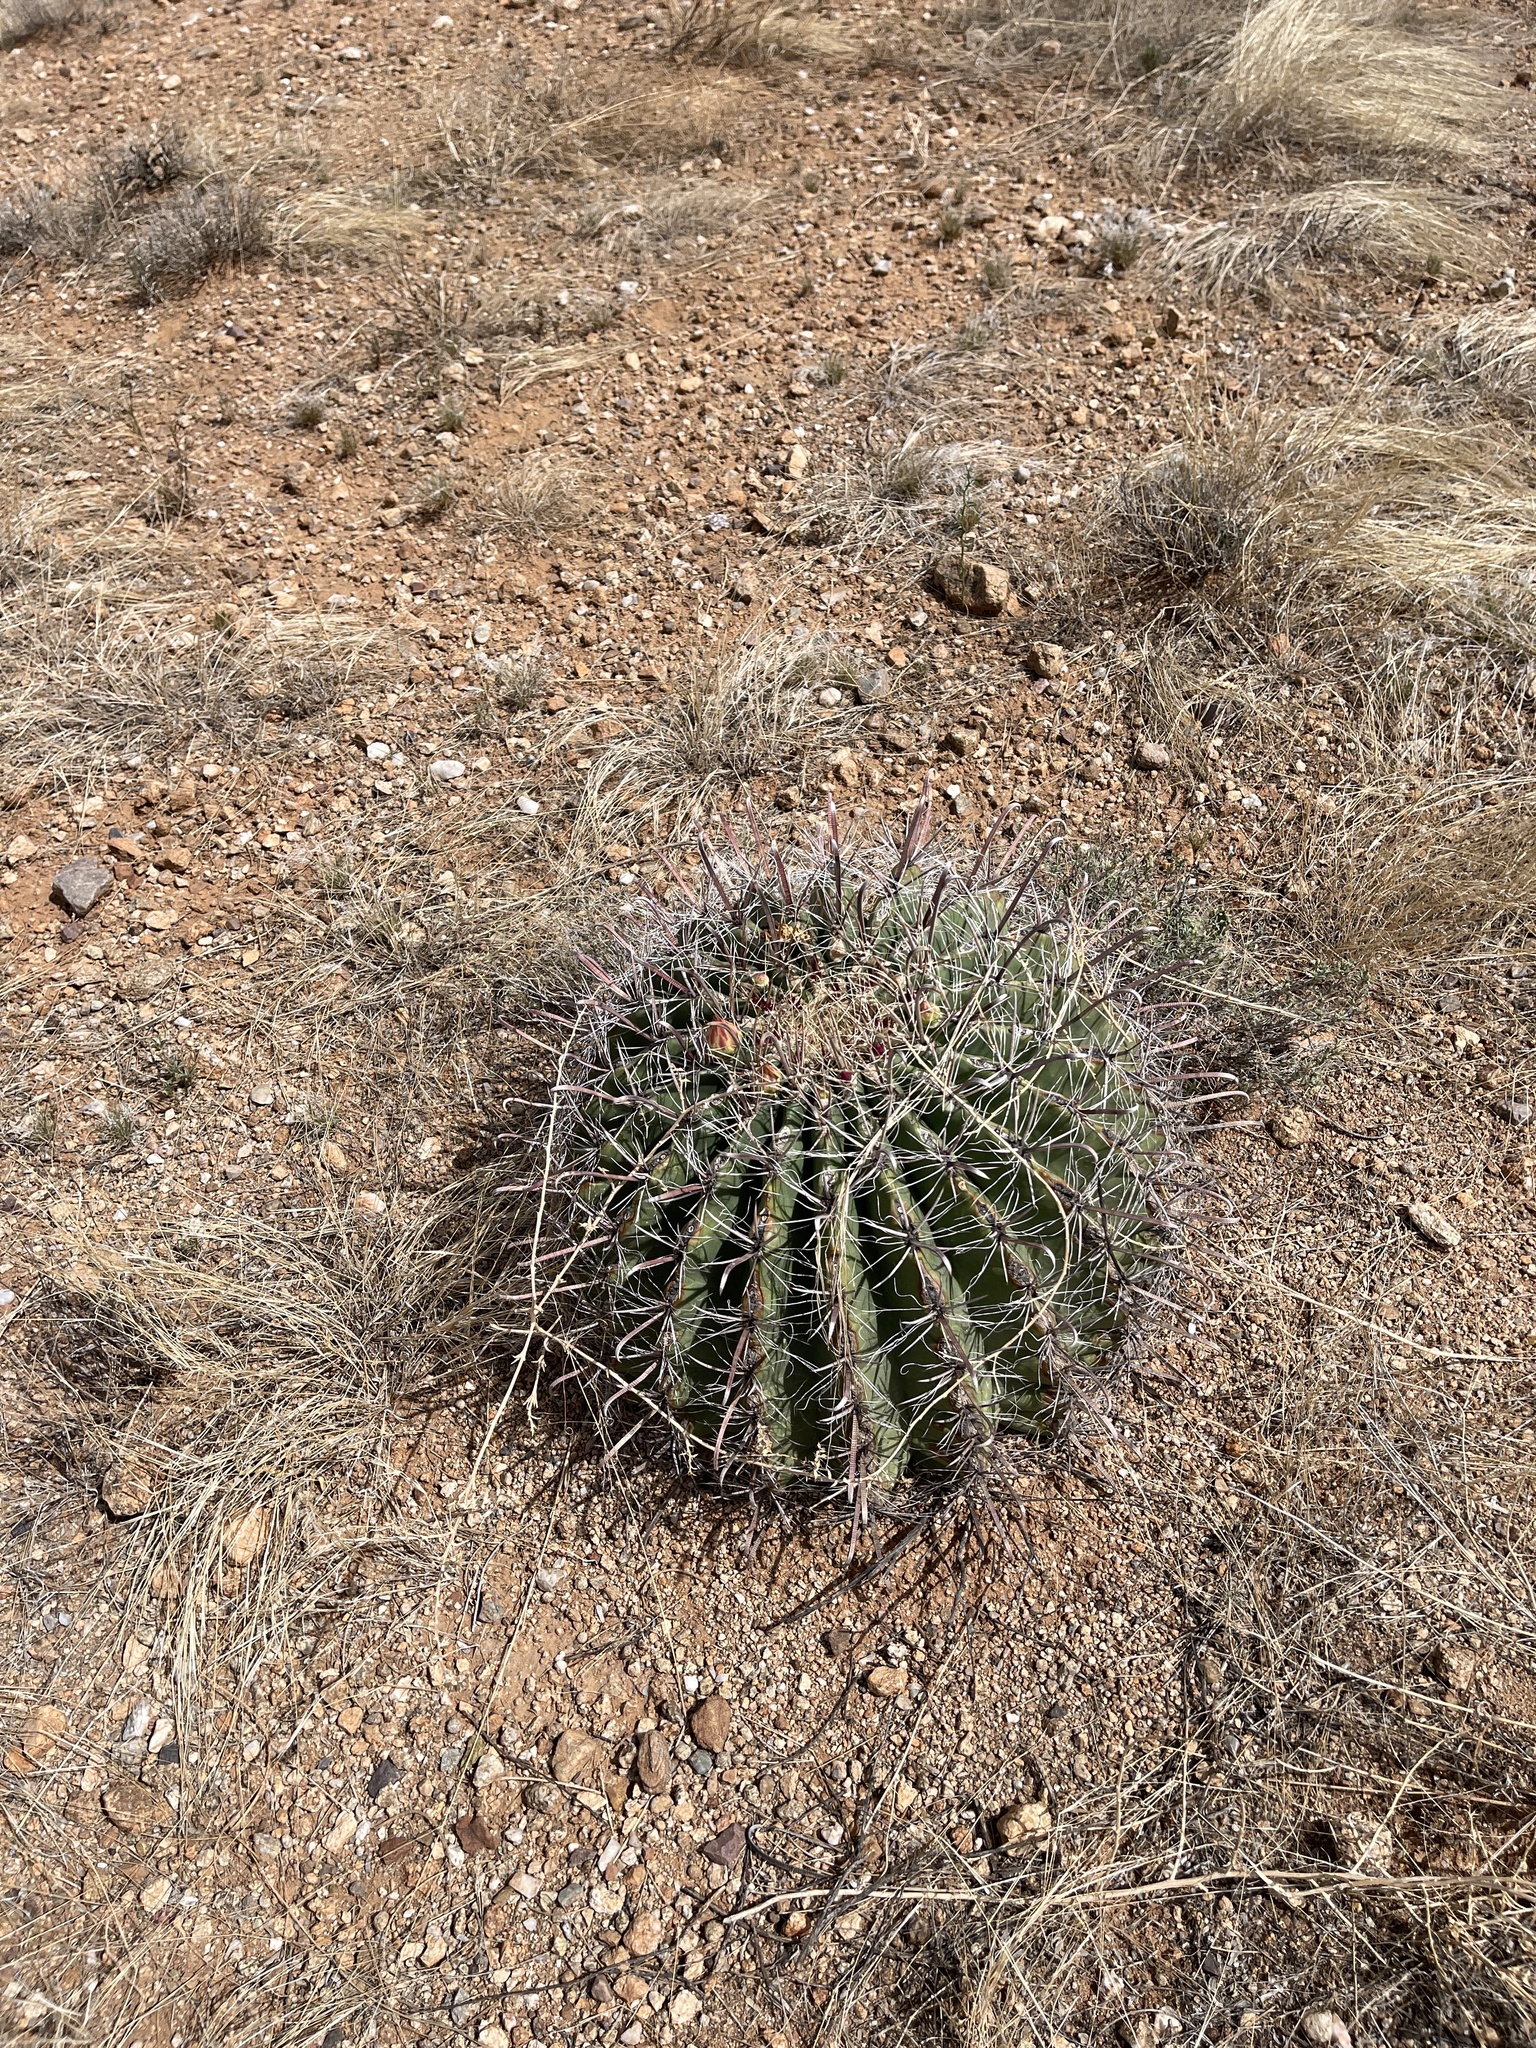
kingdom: Plantae
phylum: Tracheophyta
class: Magnoliopsida
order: Caryophyllales
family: Cactaceae
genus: Ferocactus
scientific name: Ferocactus wislizeni
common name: Candy barrel cactus
